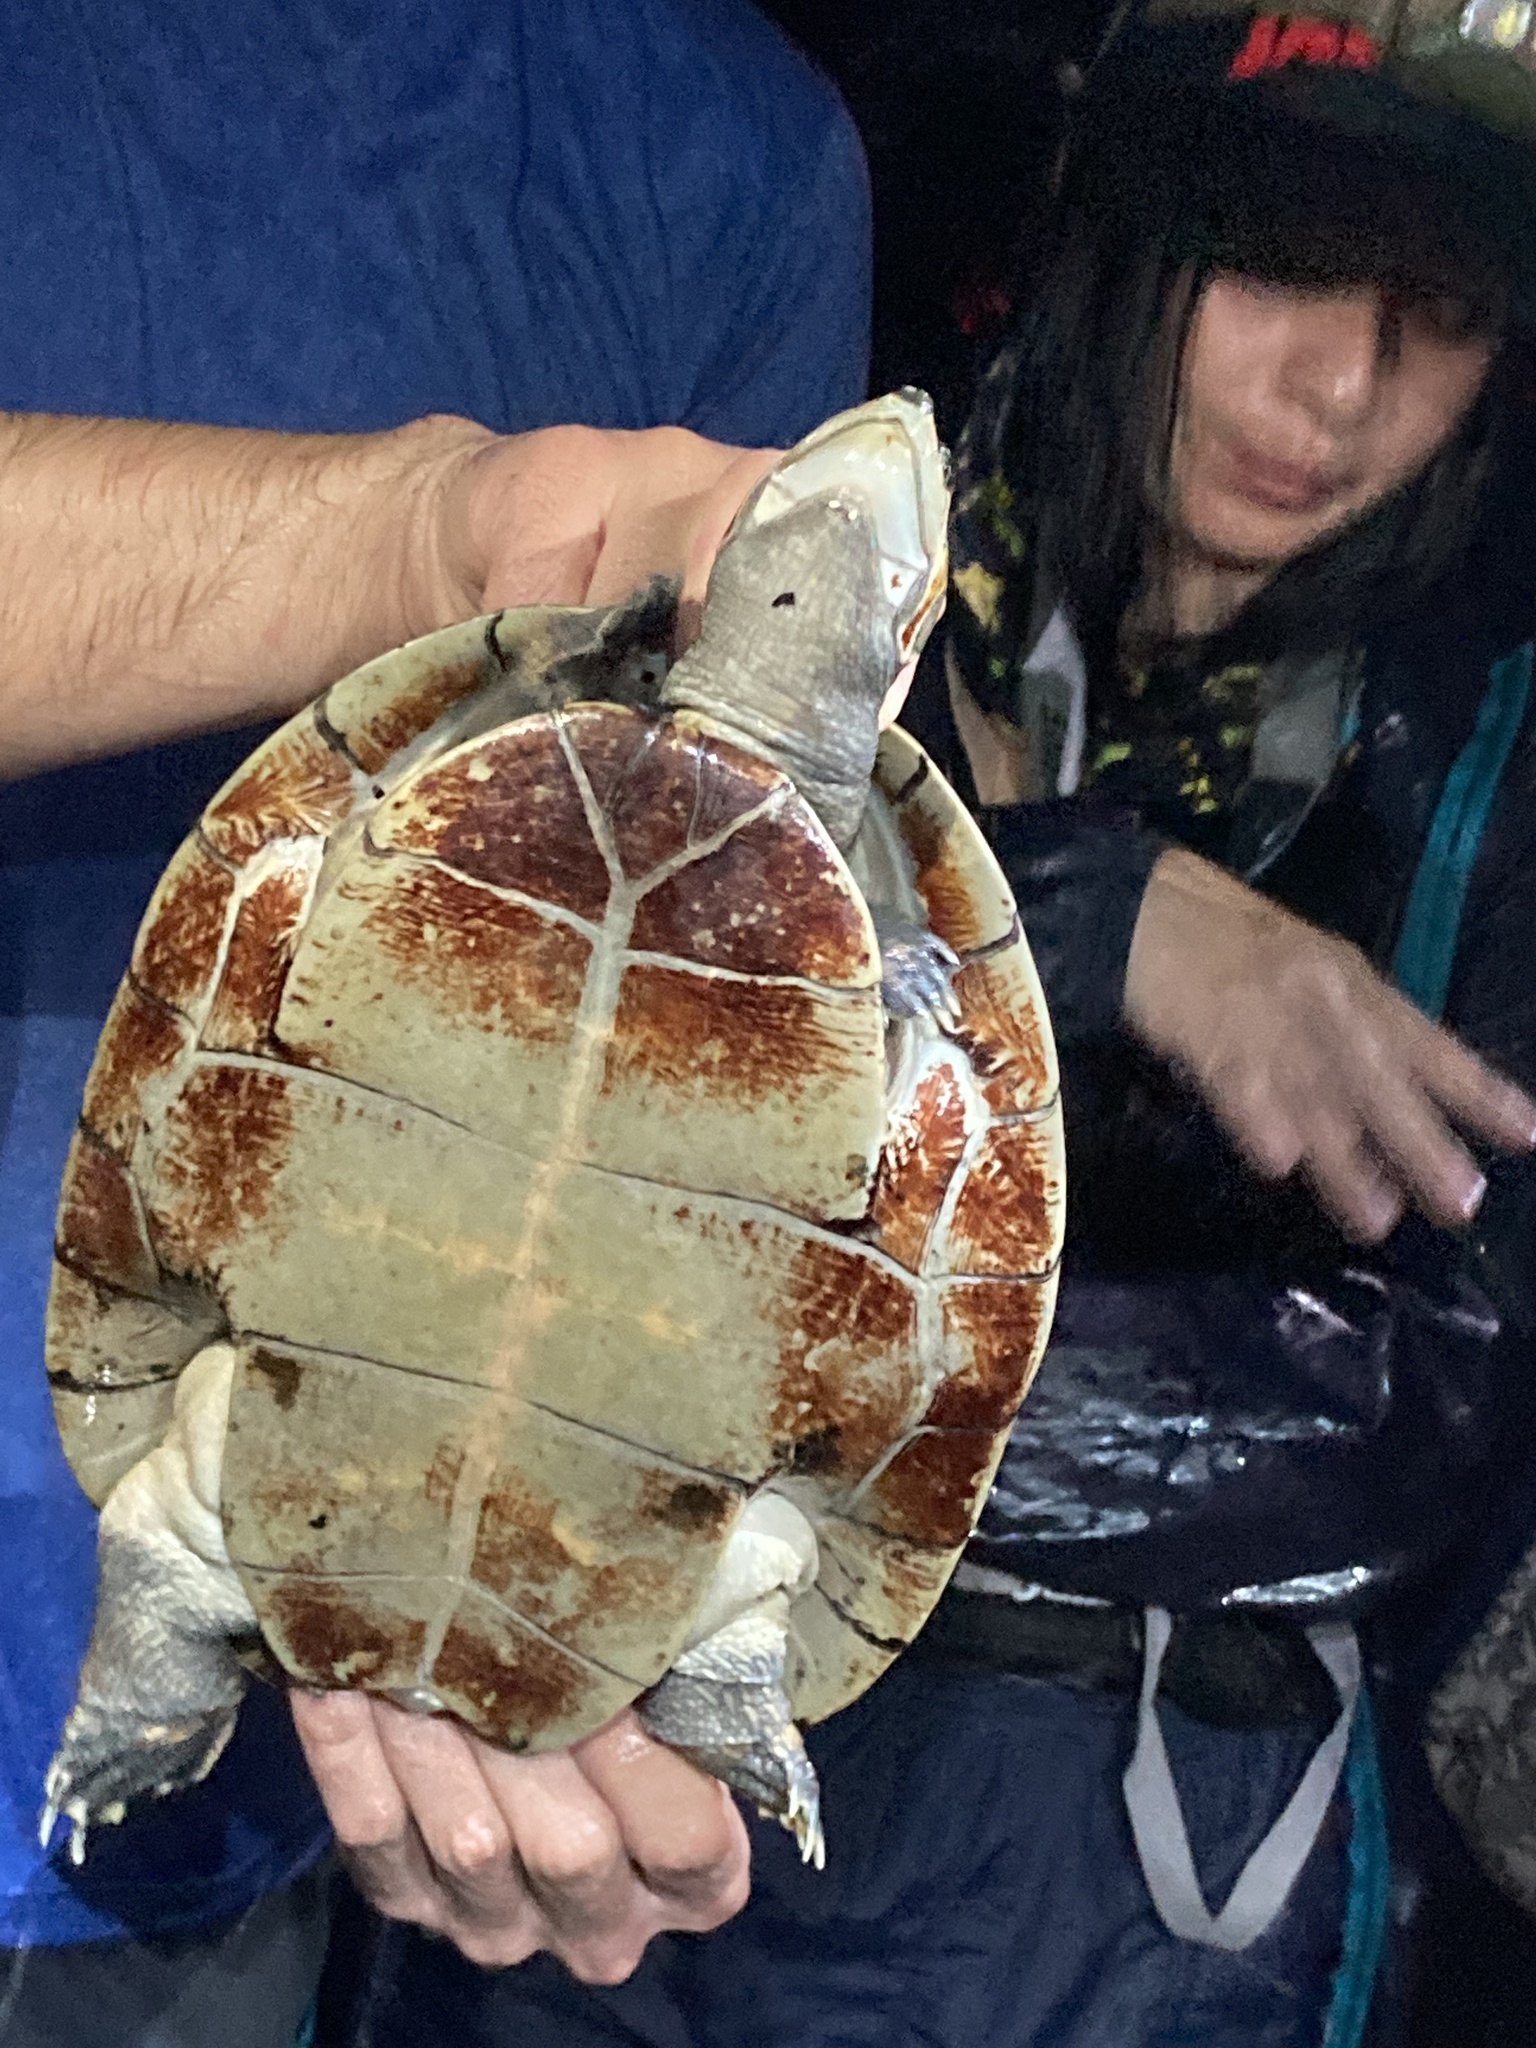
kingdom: Animalia
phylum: Chordata
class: Testudines
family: Podocnemididae
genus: Podocnemis
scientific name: Podocnemis vogli
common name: Savanna side-necked turtle
